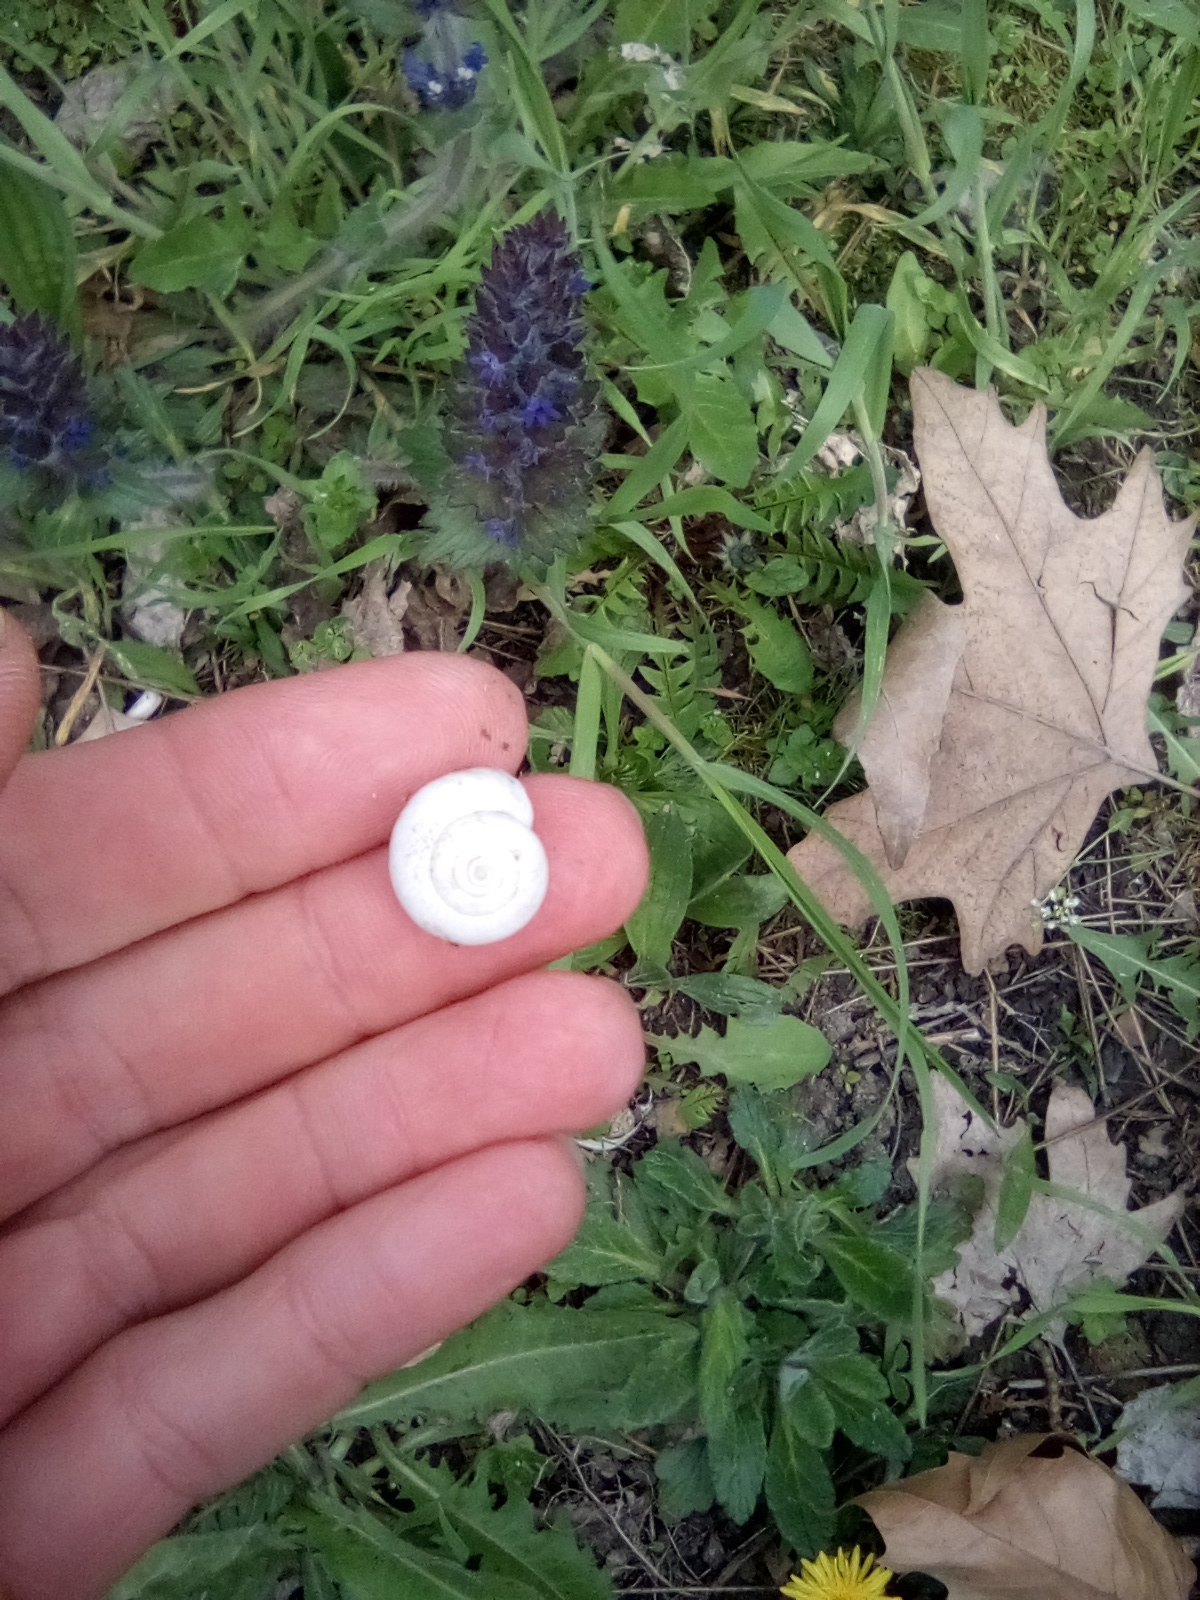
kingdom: Animalia
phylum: Mollusca
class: Gastropoda
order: Stylommatophora
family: Geomitridae
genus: Xeropicta
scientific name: Xeropicta derbentina
